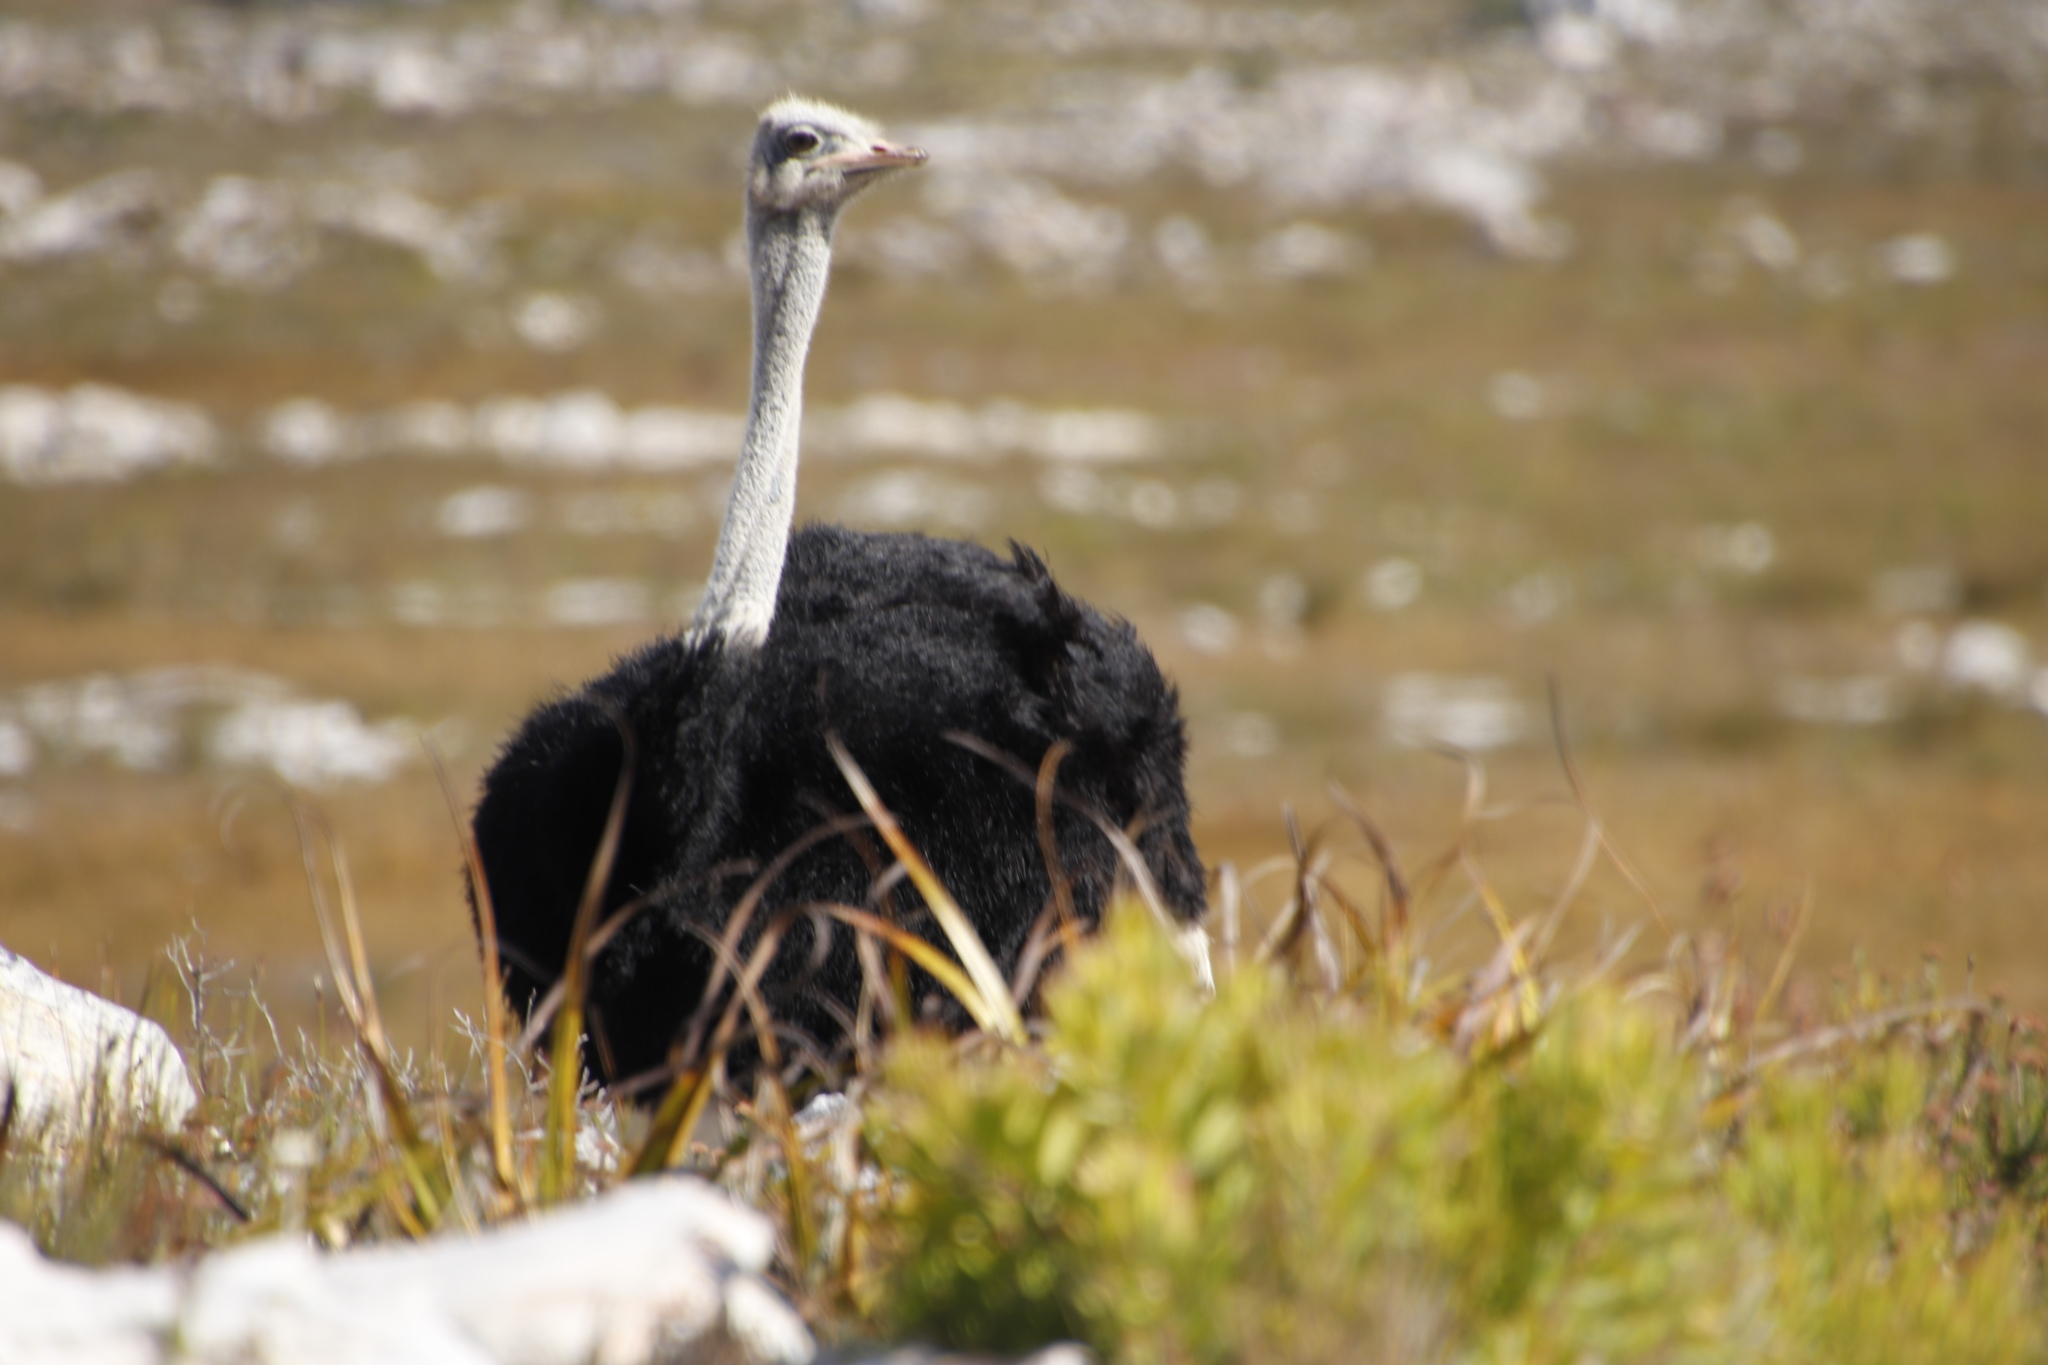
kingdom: Animalia
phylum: Chordata
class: Aves
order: Struthioniformes
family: Struthionidae
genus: Struthio
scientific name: Struthio camelus
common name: Common ostrich
